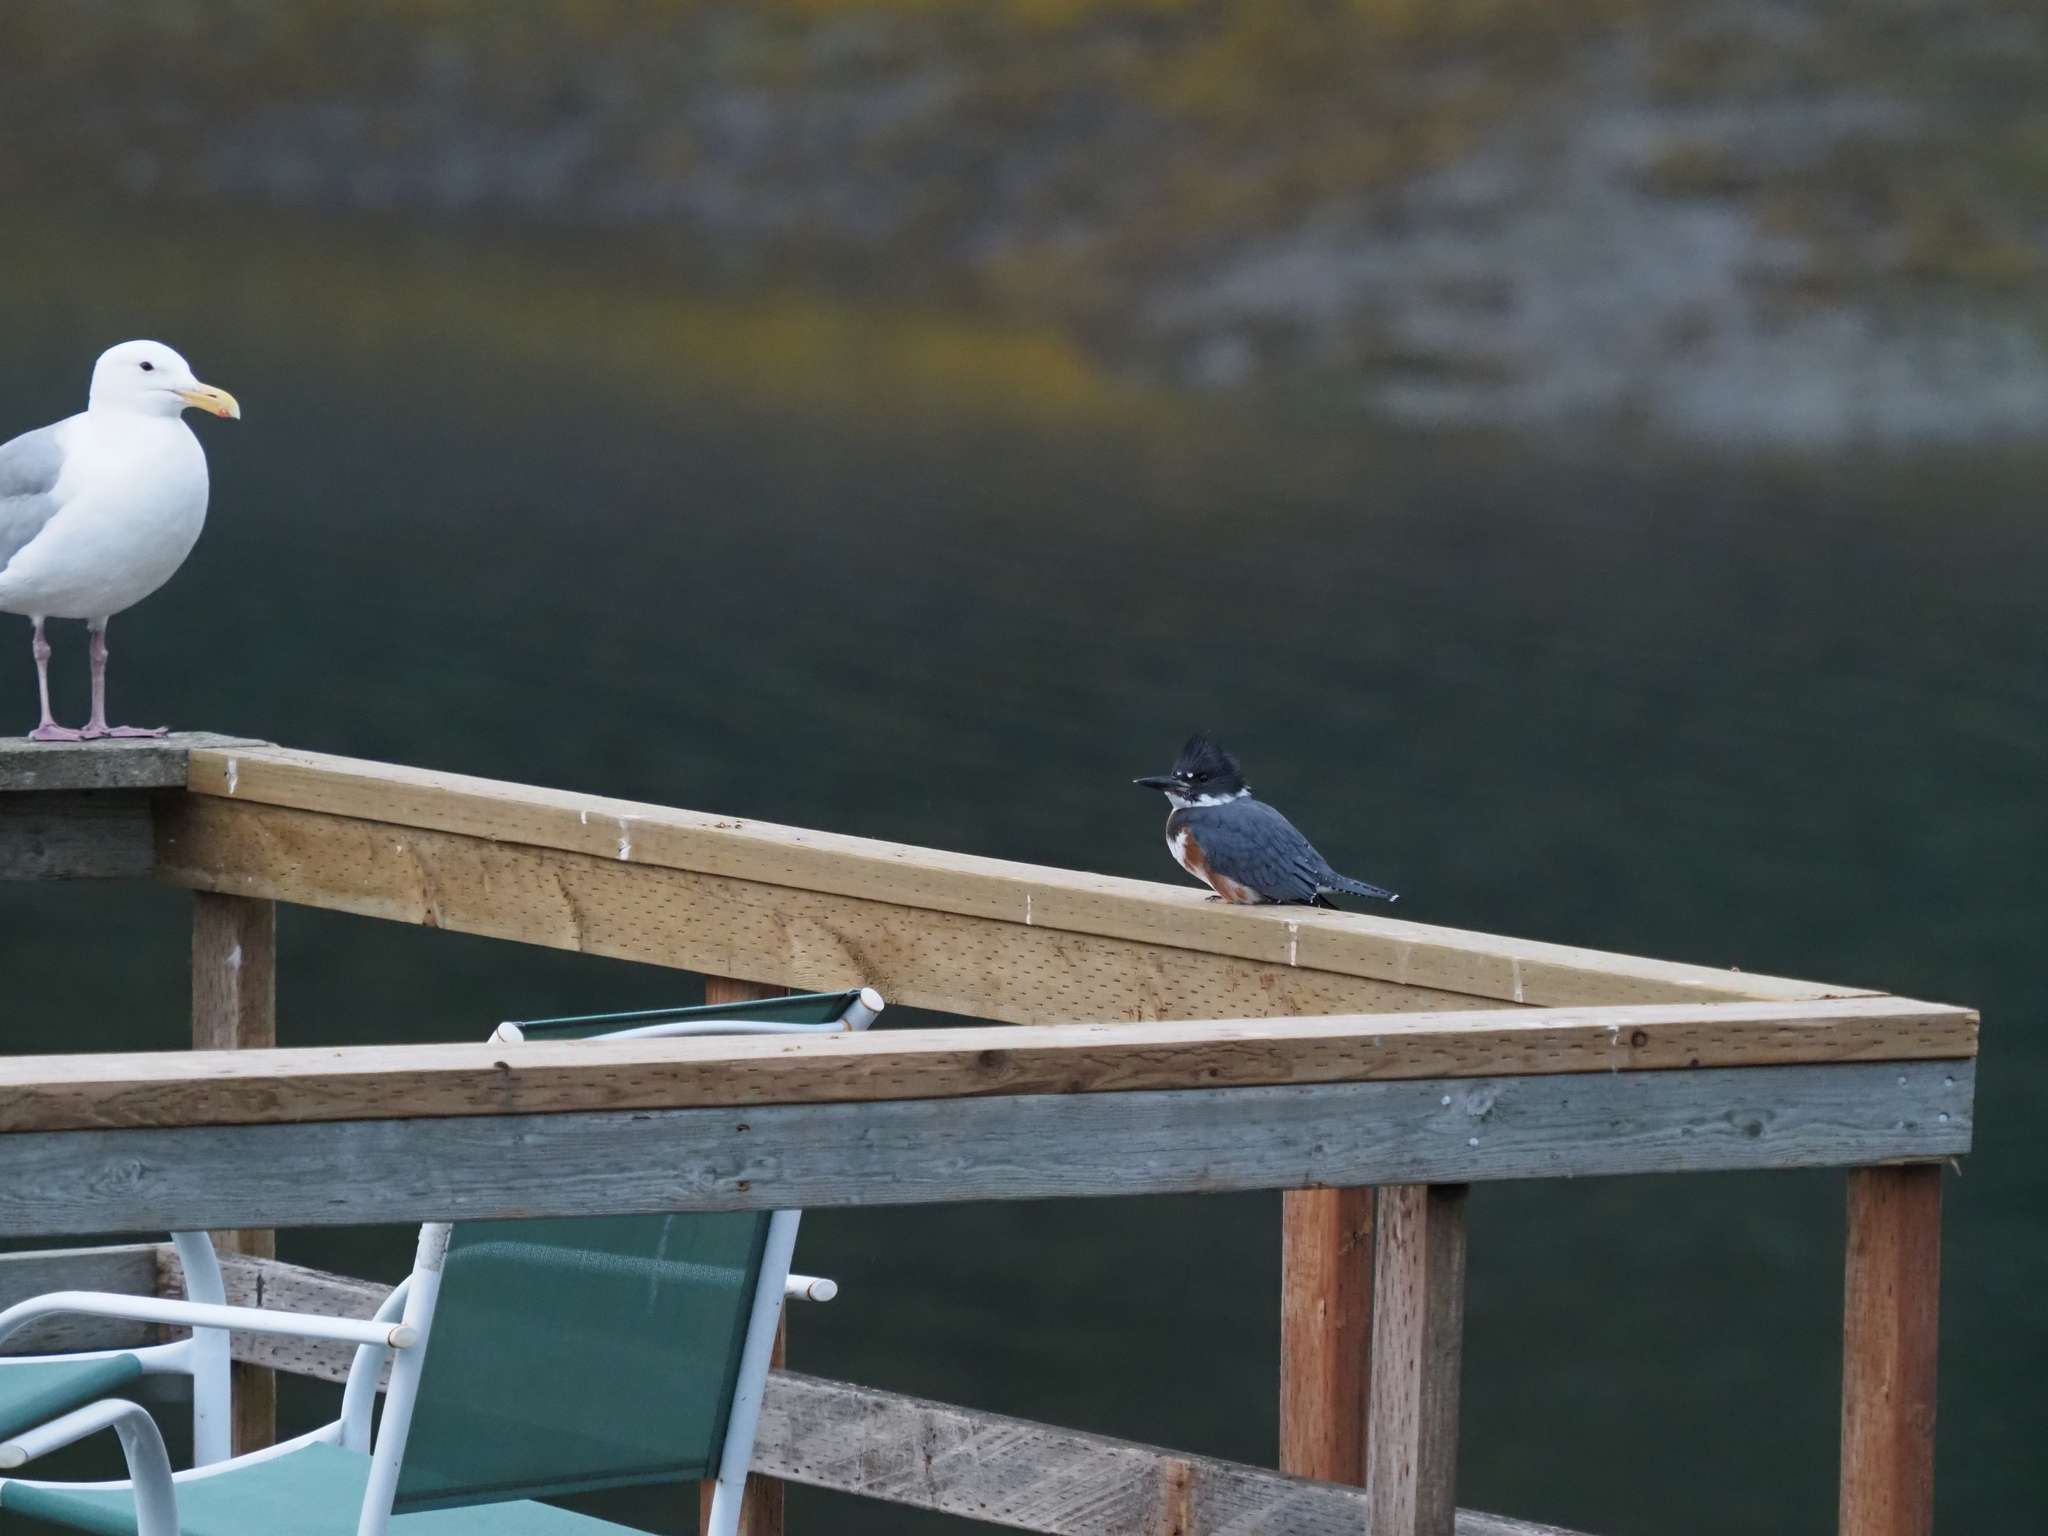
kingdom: Animalia
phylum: Chordata
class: Aves
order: Coraciiformes
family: Alcedinidae
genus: Megaceryle
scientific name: Megaceryle alcyon
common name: Belted kingfisher
